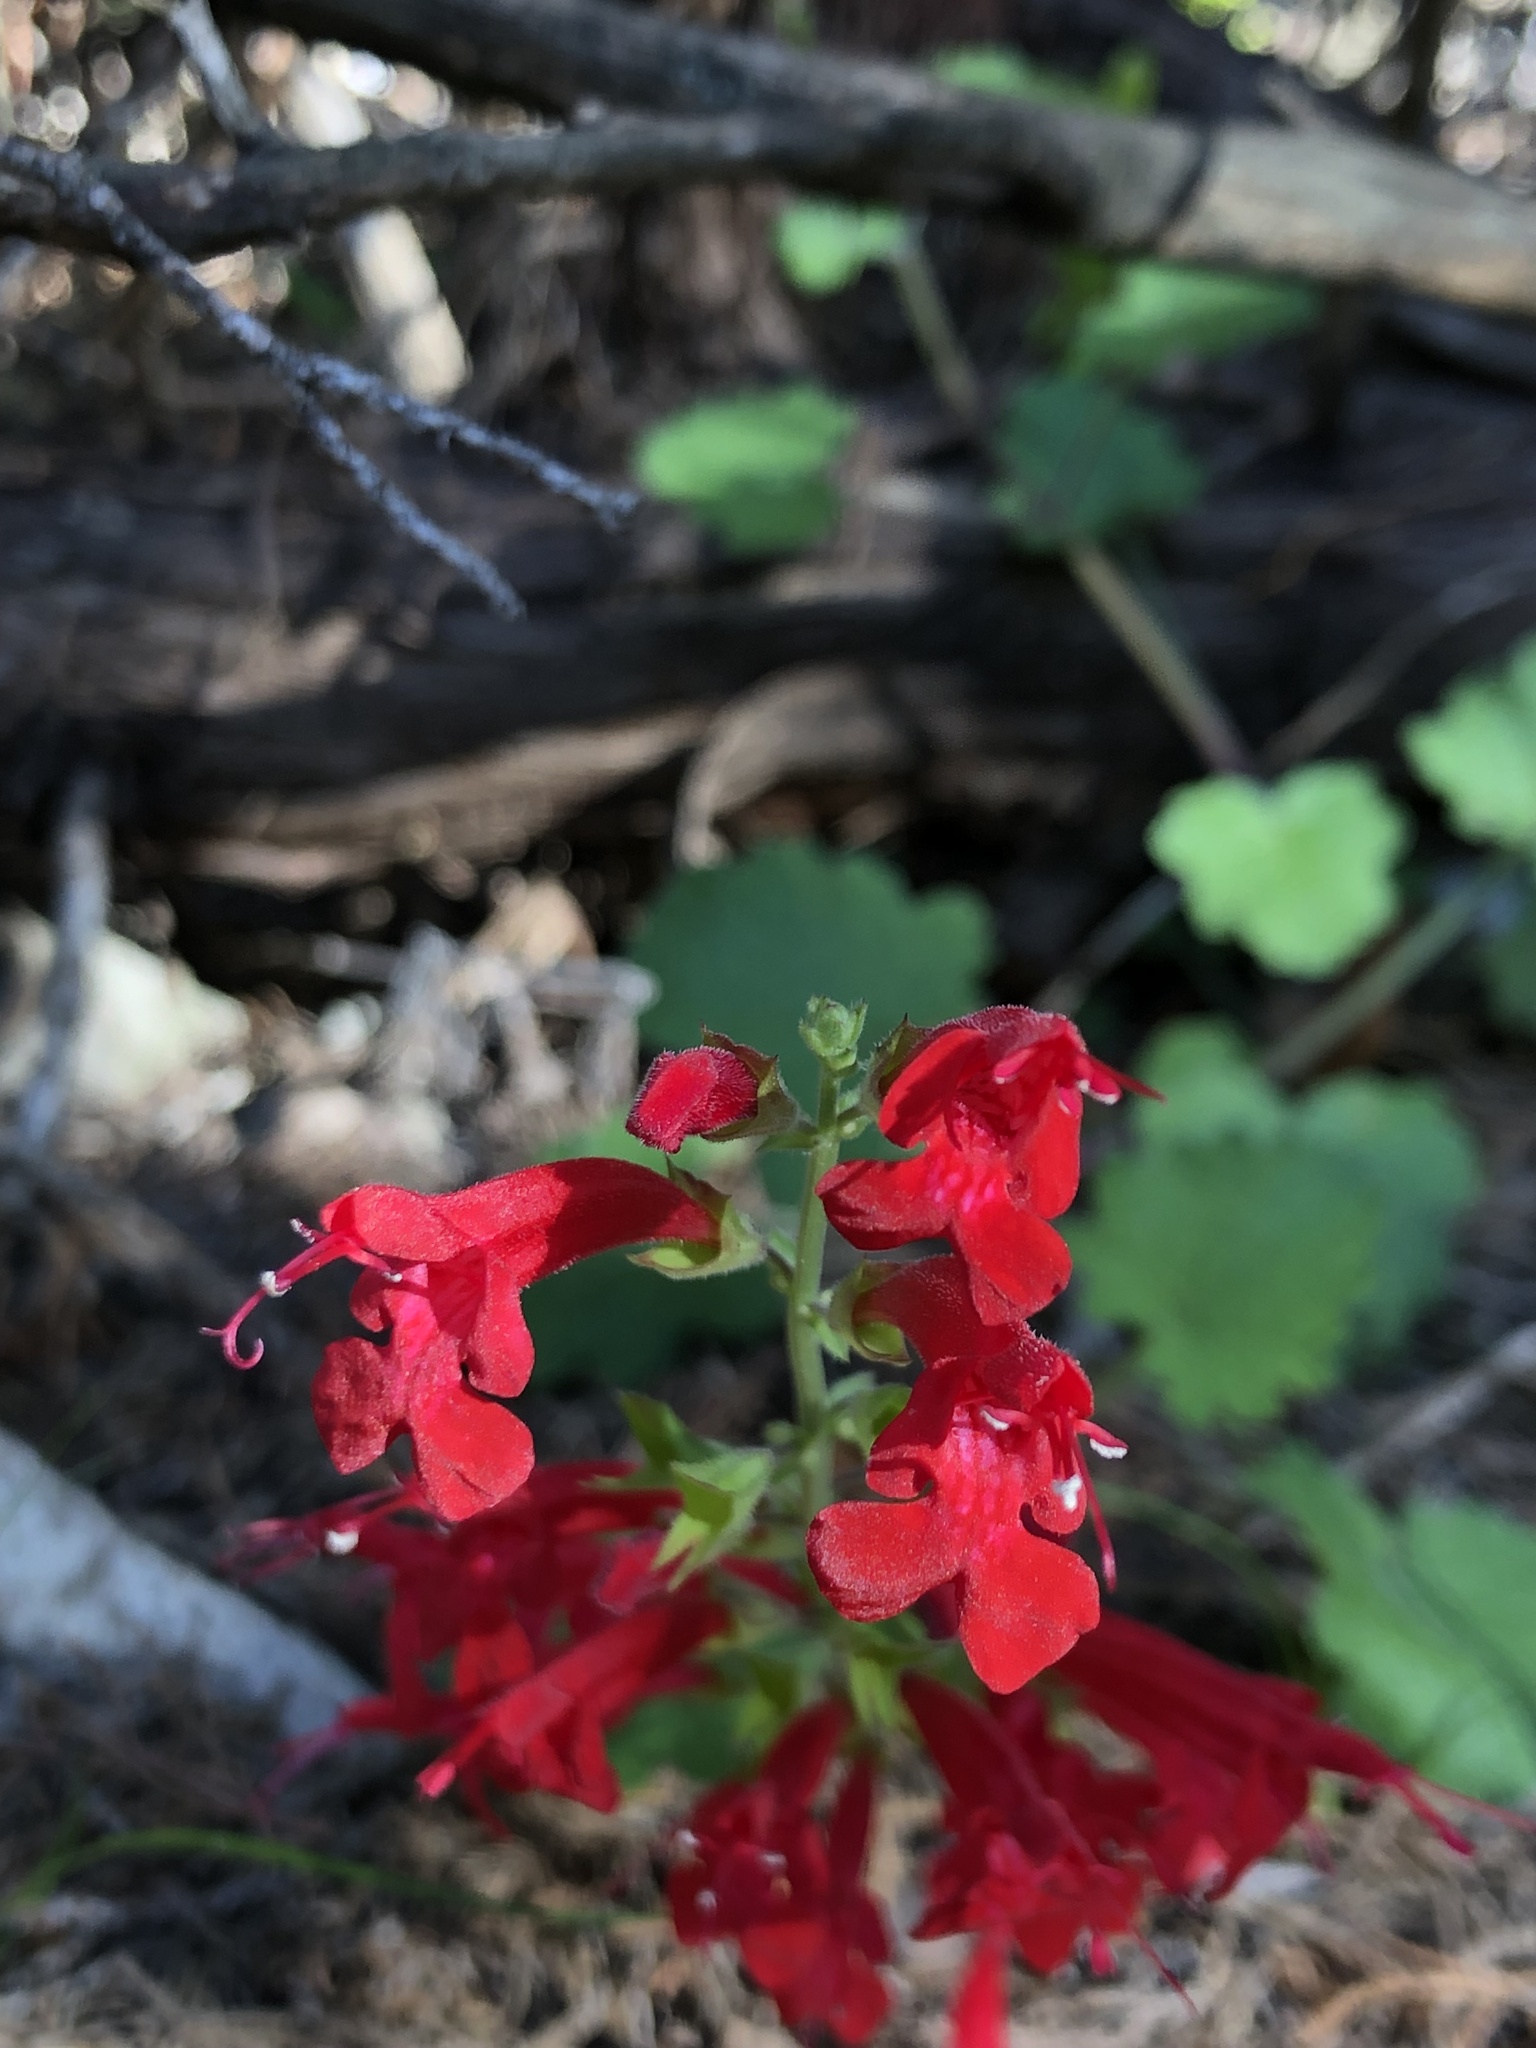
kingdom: Plantae
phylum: Tracheophyta
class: Magnoliopsida
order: Lamiales
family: Lamiaceae
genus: Salvia
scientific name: Salvia roemeriana
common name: Cedar sage
